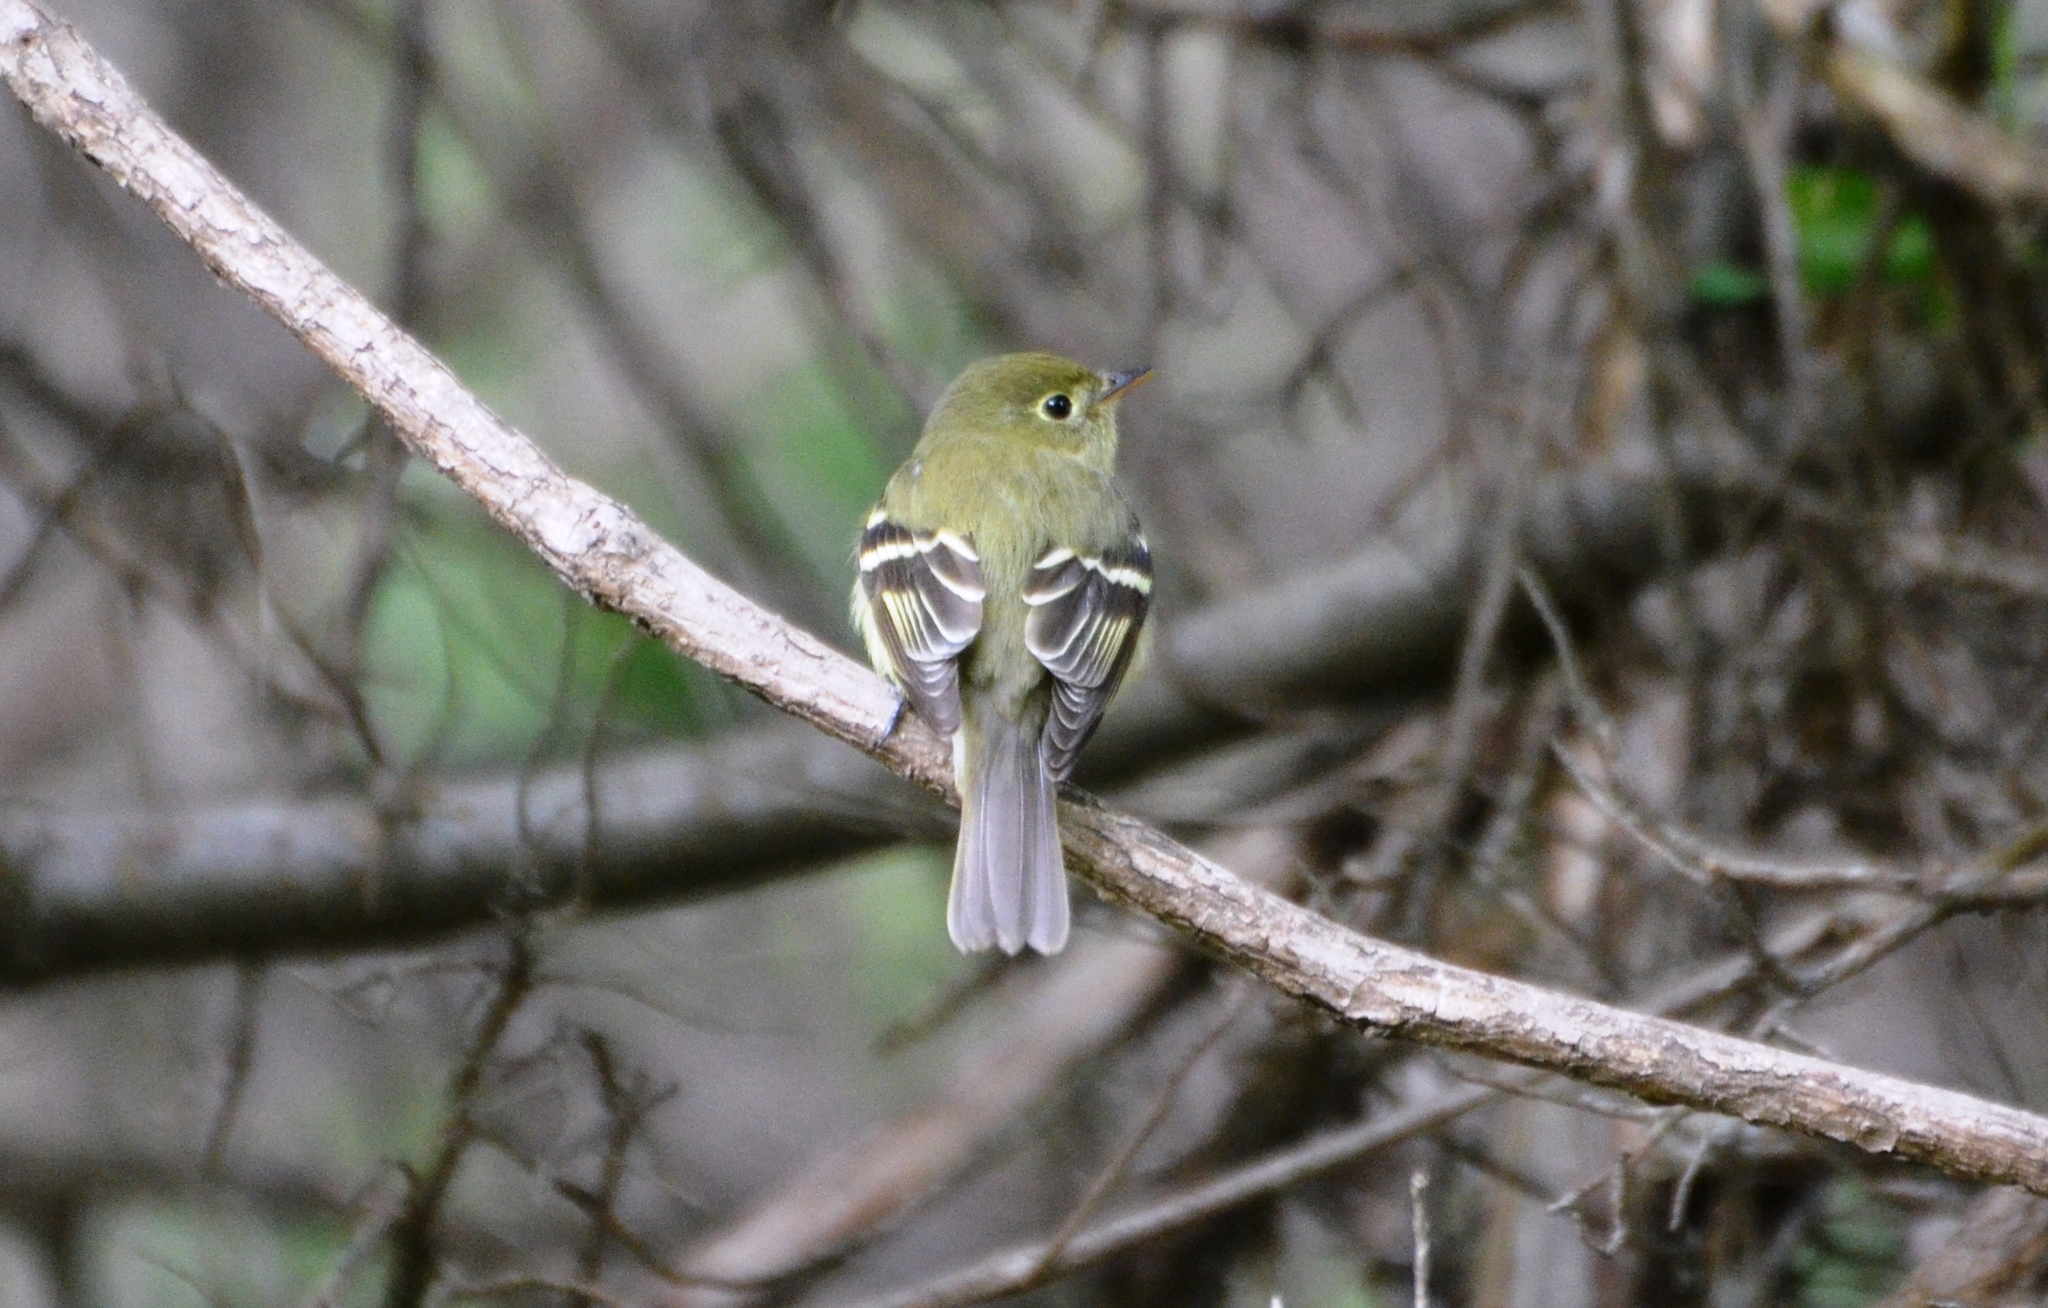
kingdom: Animalia
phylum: Chordata
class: Aves
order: Passeriformes
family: Tyrannidae
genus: Empidonax
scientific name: Empidonax flaviventris
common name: Yellow-bellied flycatcher
